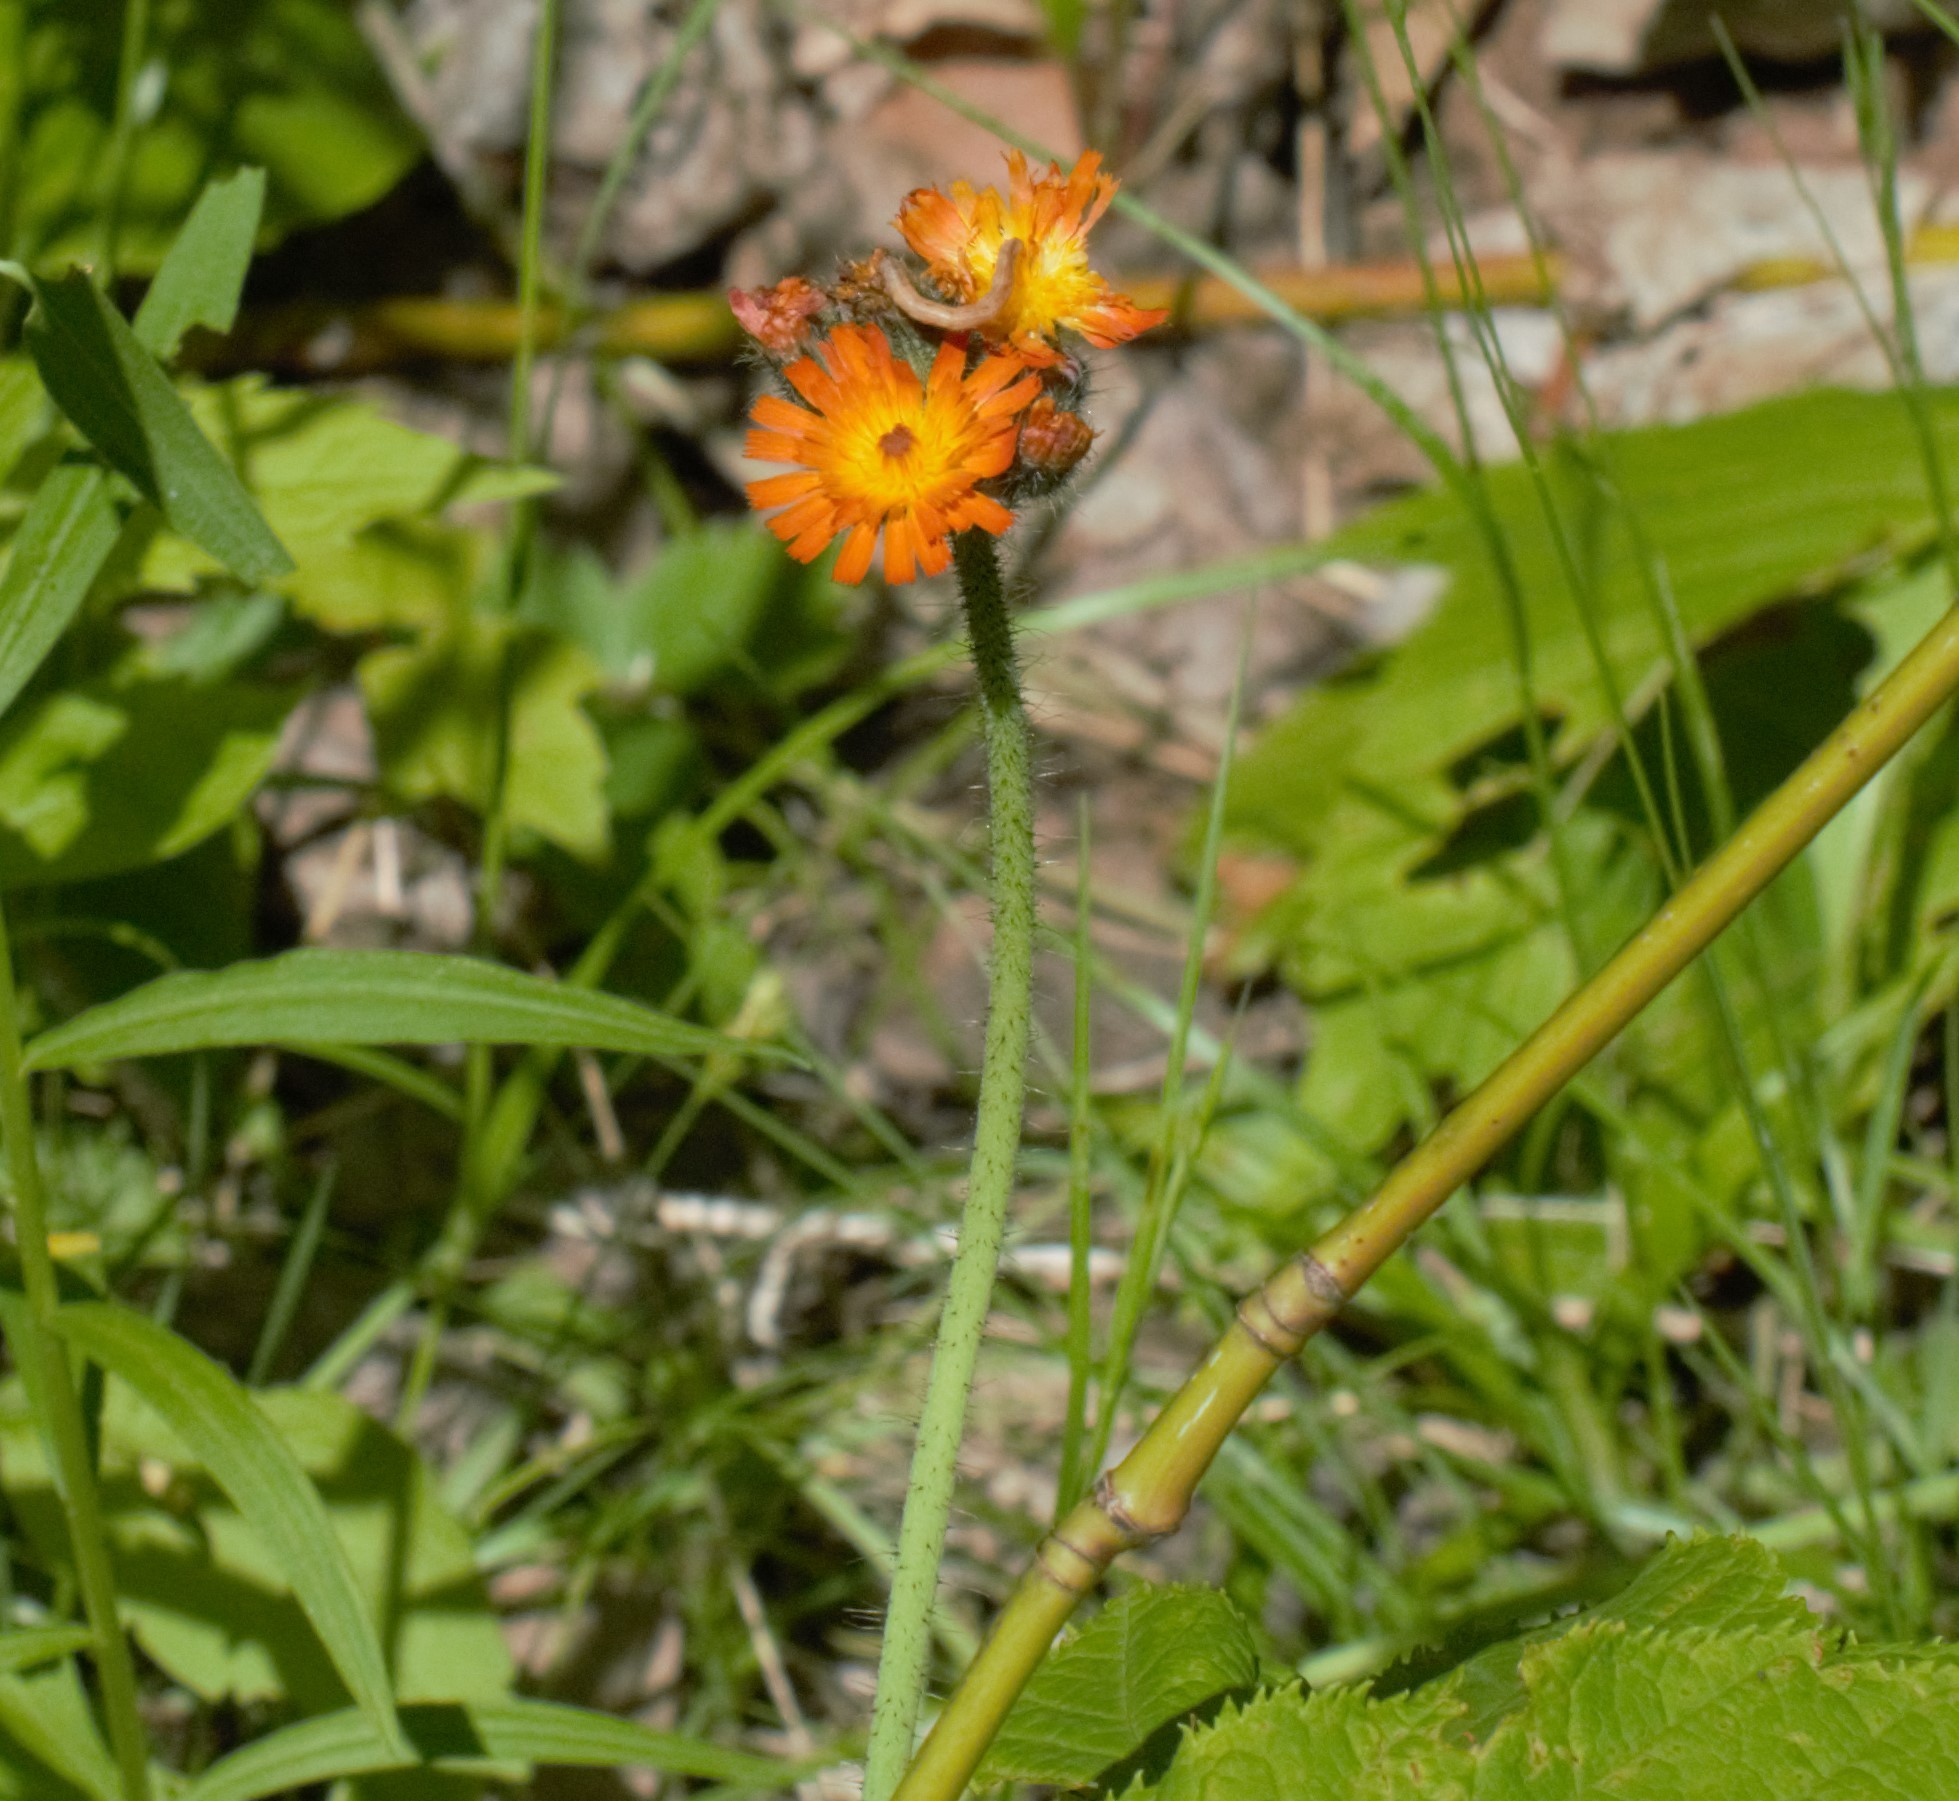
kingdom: Plantae
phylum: Tracheophyta
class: Magnoliopsida
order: Asterales
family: Asteraceae
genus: Pilosella
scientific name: Pilosella aurantiaca
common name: Fox-and-cubs
